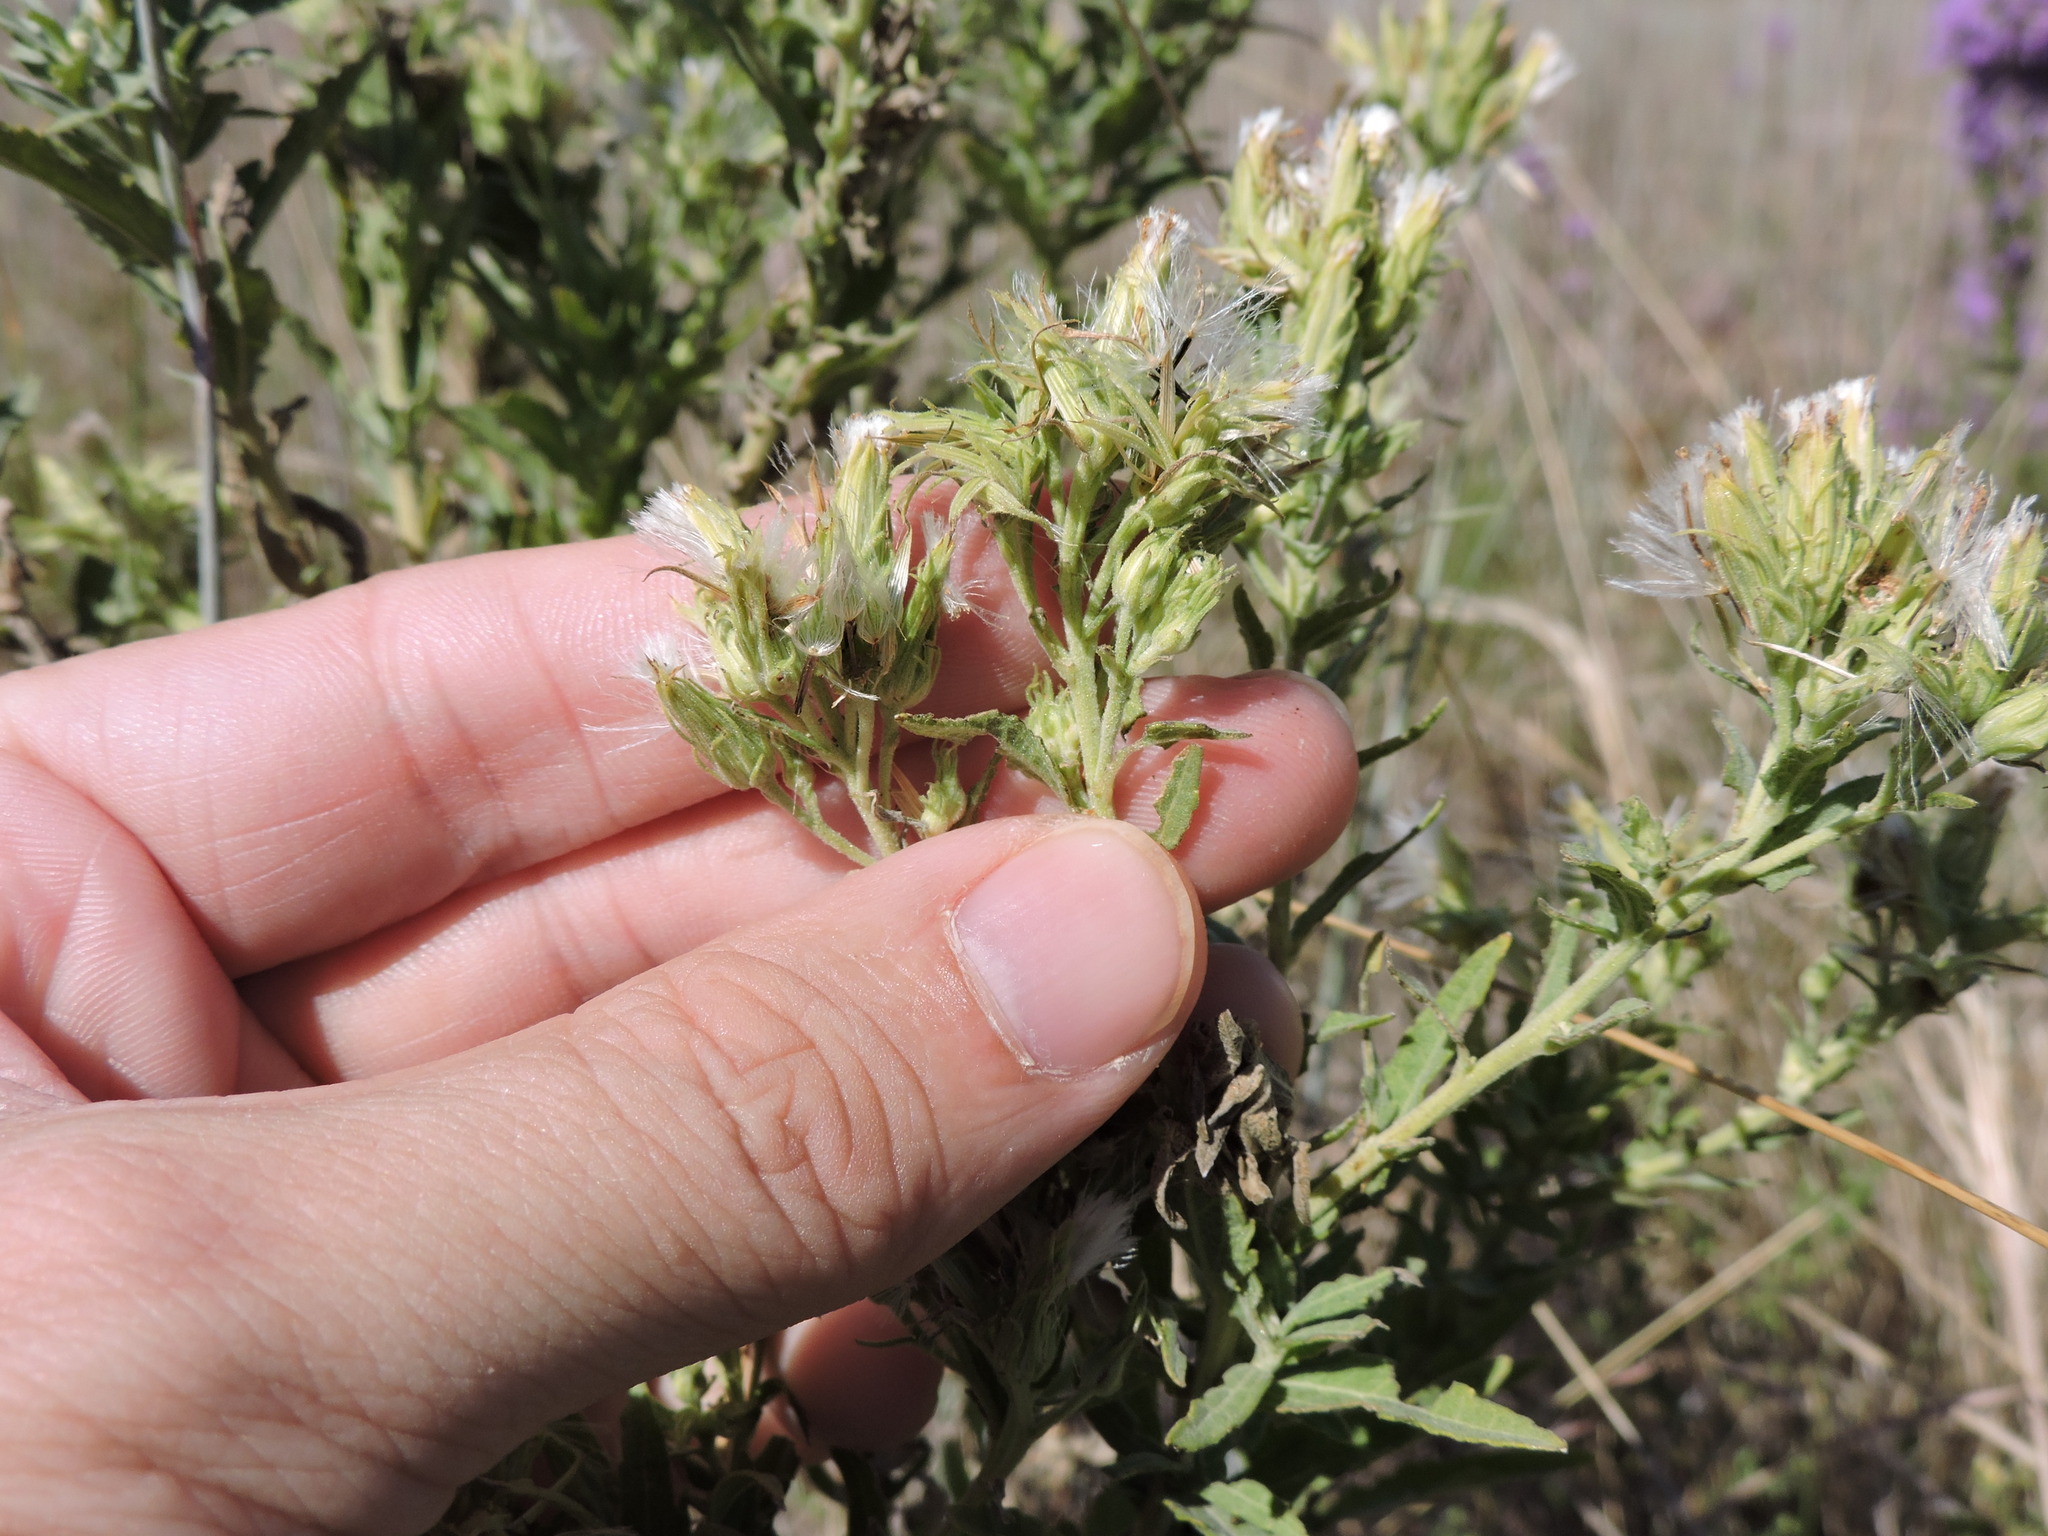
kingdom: Plantae
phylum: Tracheophyta
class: Magnoliopsida
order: Asterales
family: Asteraceae
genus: Brickellia
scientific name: Brickellia eupatorioides
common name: False boneset
